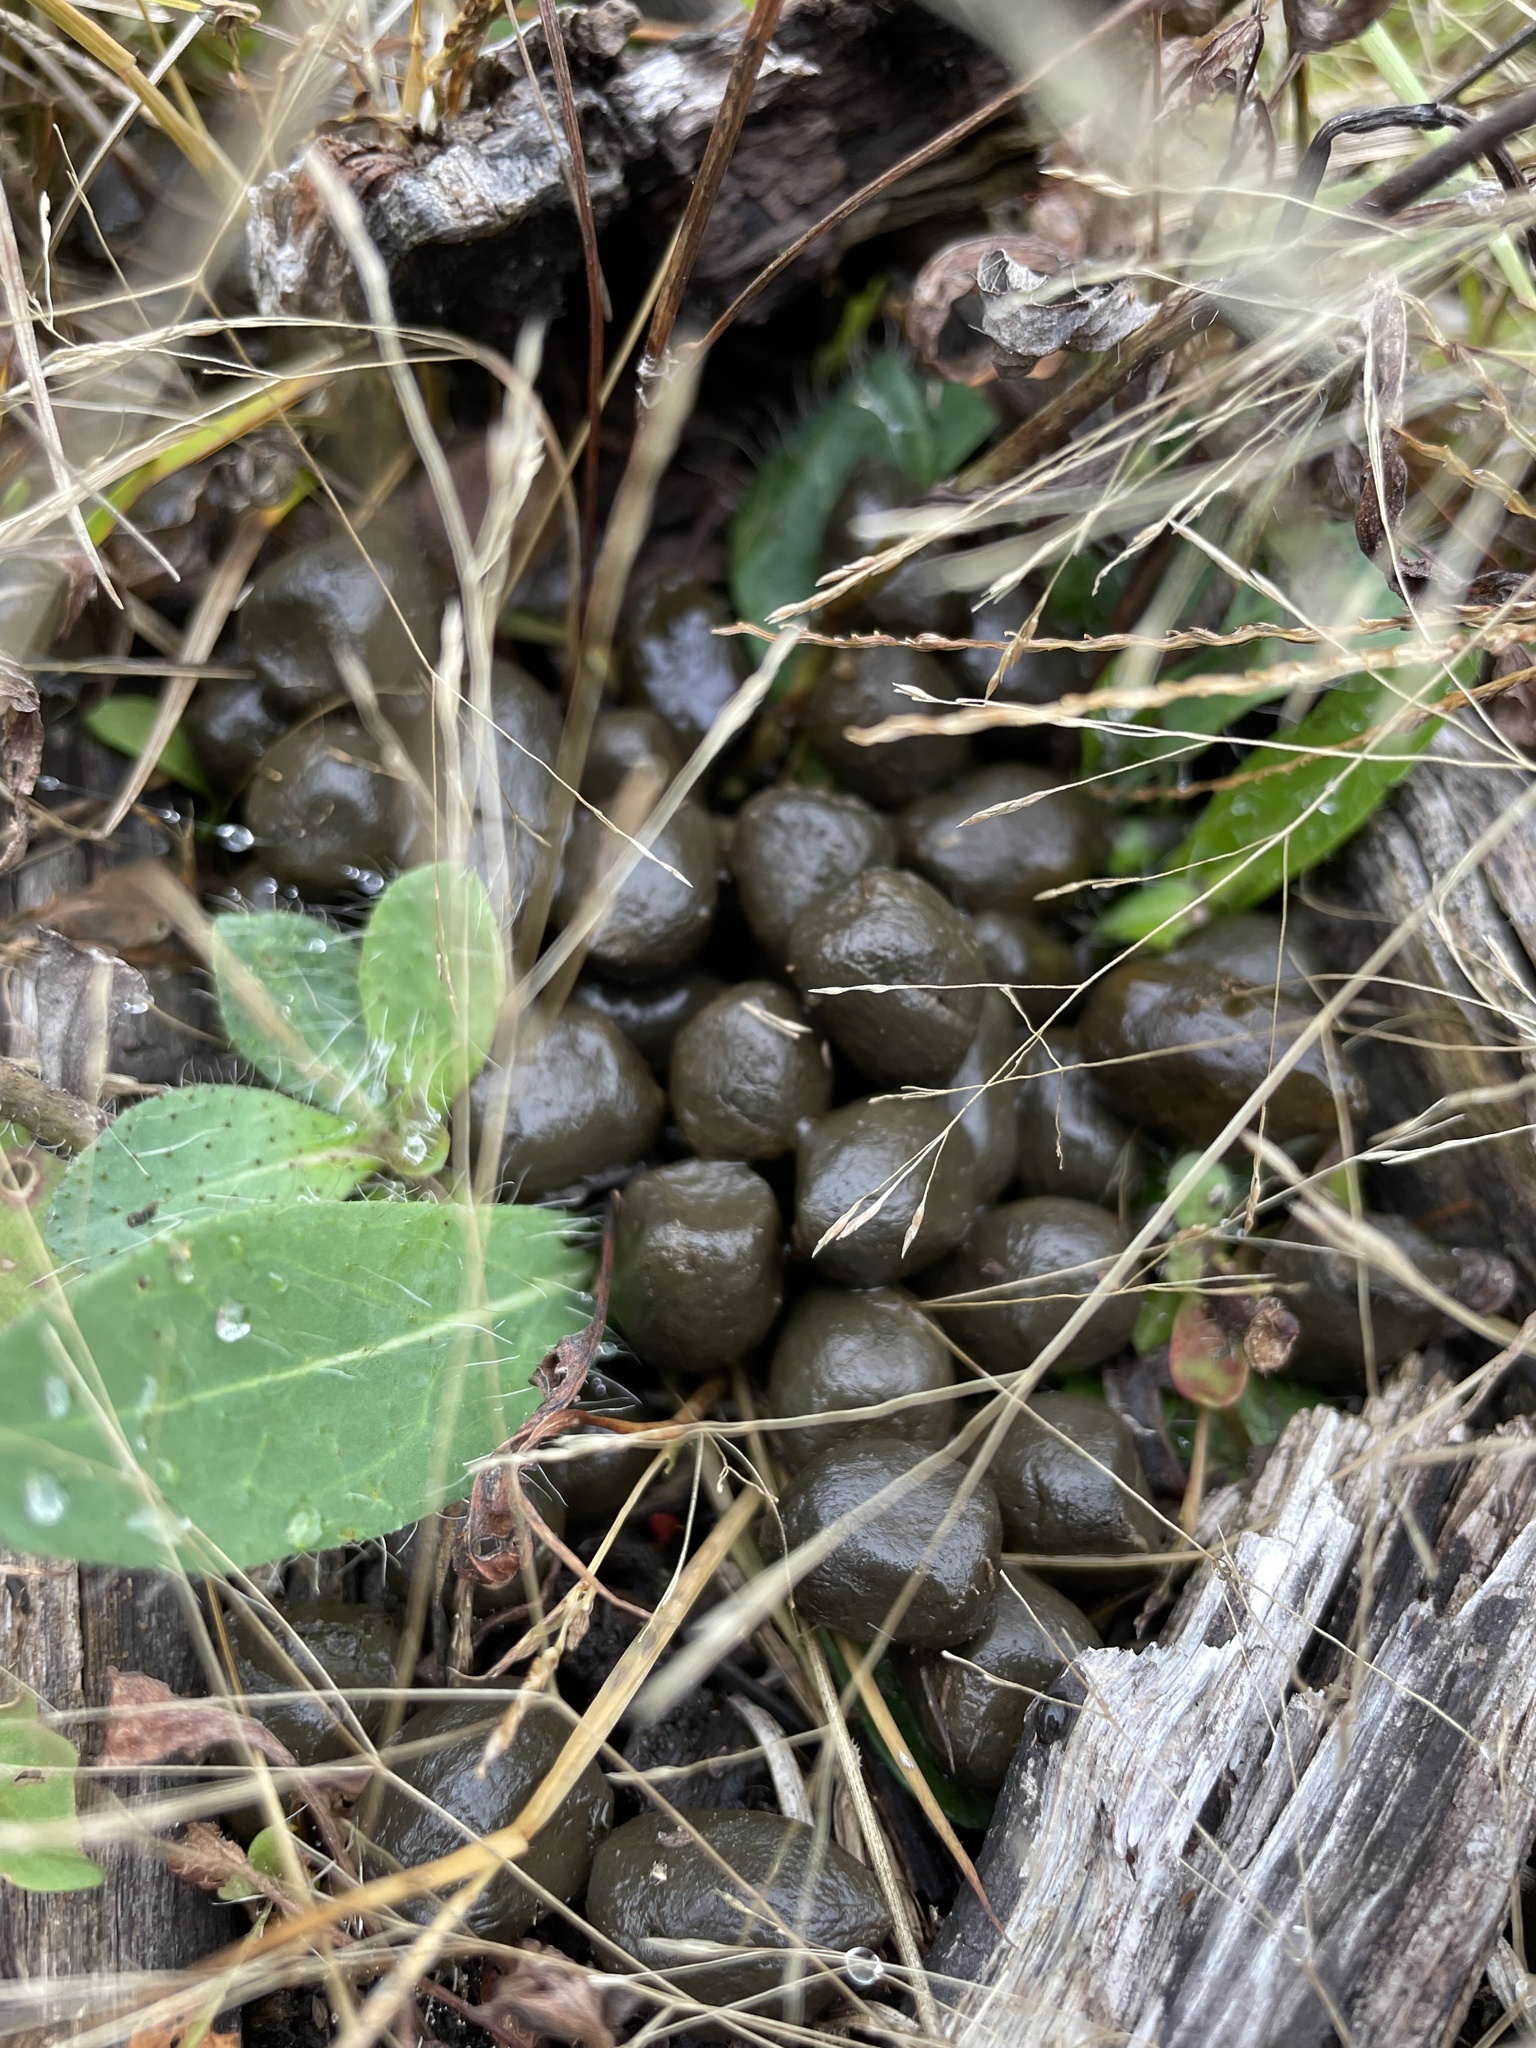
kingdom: Animalia
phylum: Chordata
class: Mammalia
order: Artiodactyla
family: Cervidae
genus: Odocoileus
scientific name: Odocoileus virginianus
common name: White-tailed deer
